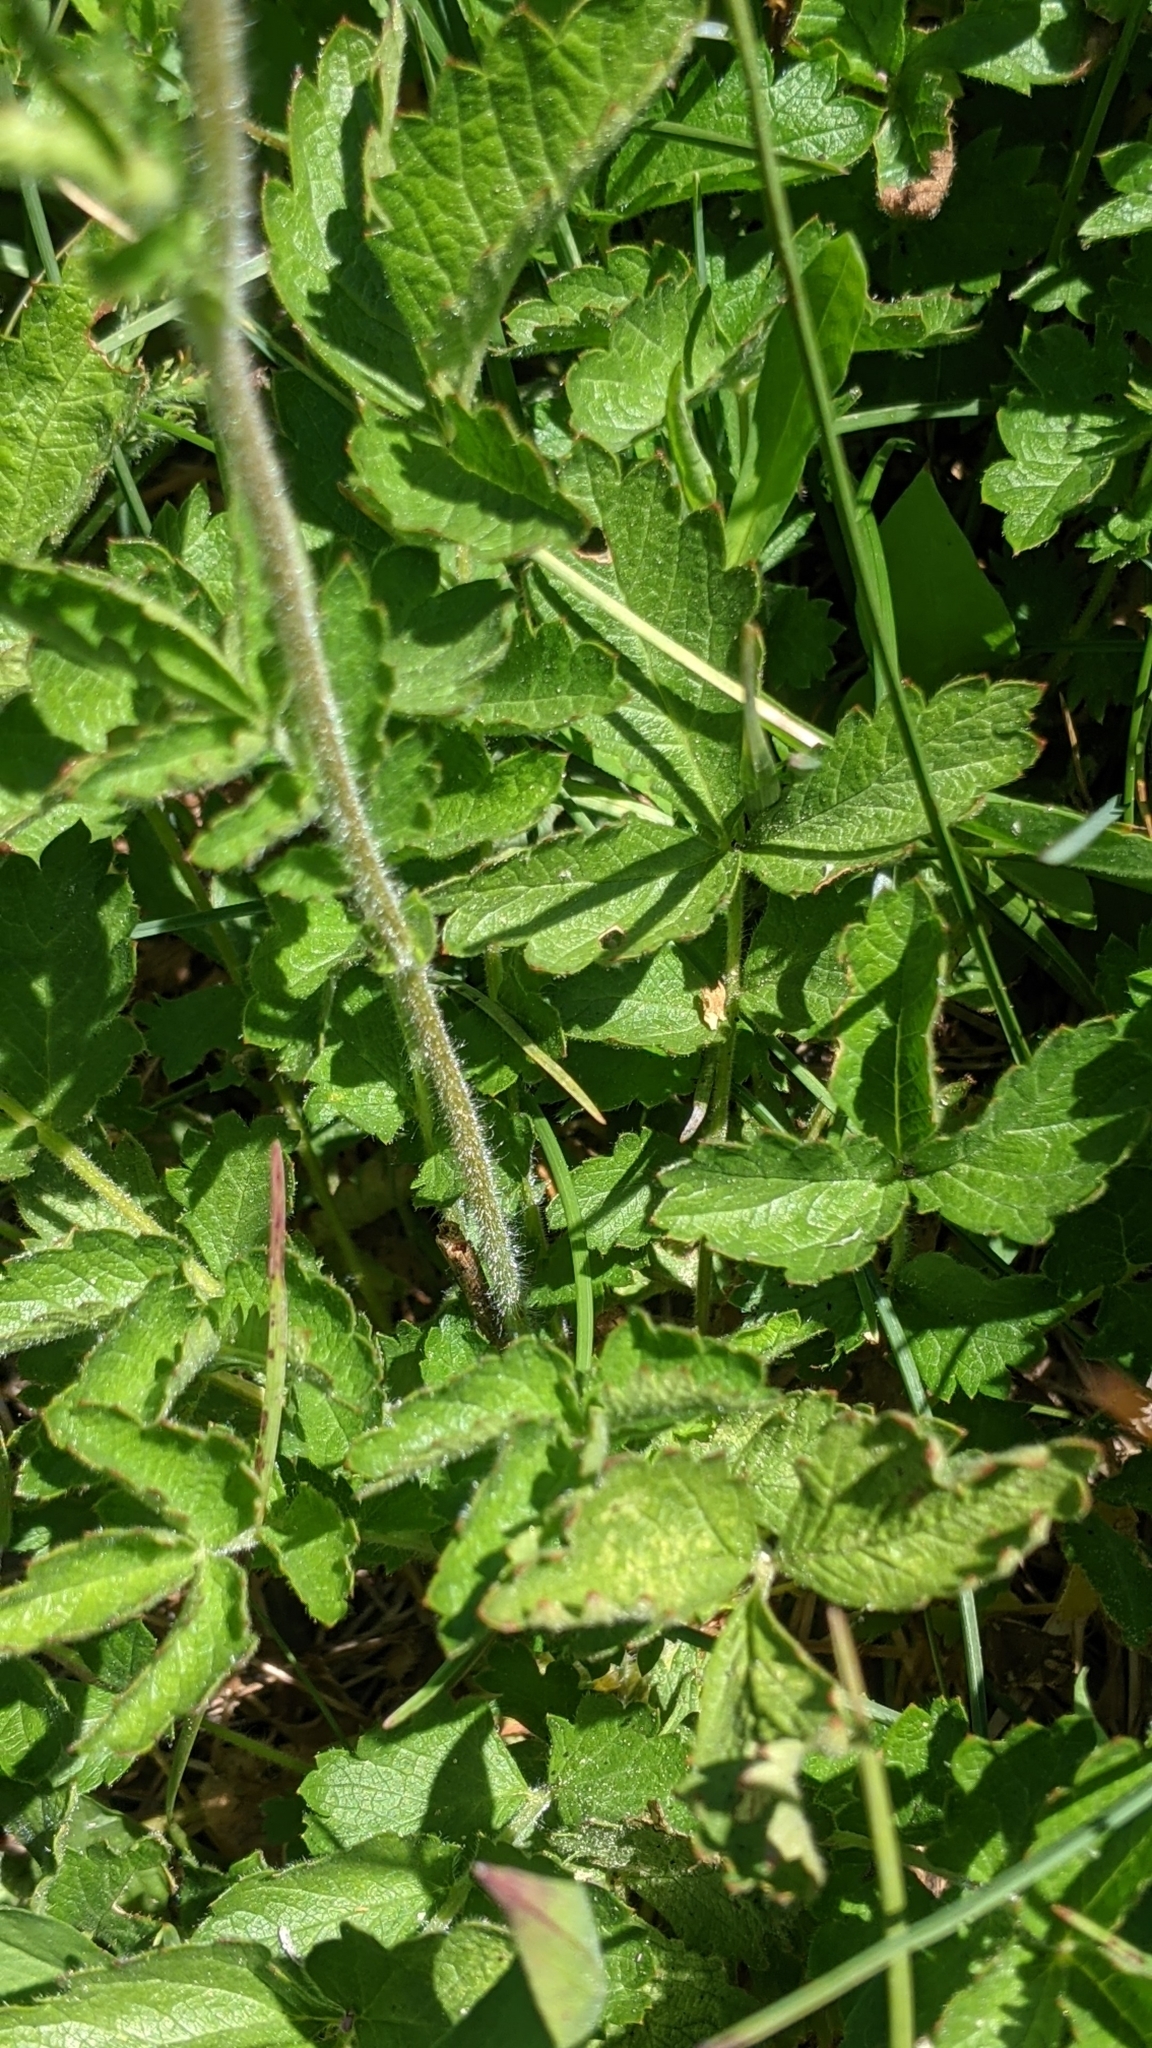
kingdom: Plantae
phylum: Tracheophyta
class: Magnoliopsida
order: Rosales
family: Rosaceae
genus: Drymocallis
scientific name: Drymocallis glandulosa
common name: Sticky cinquefoil
